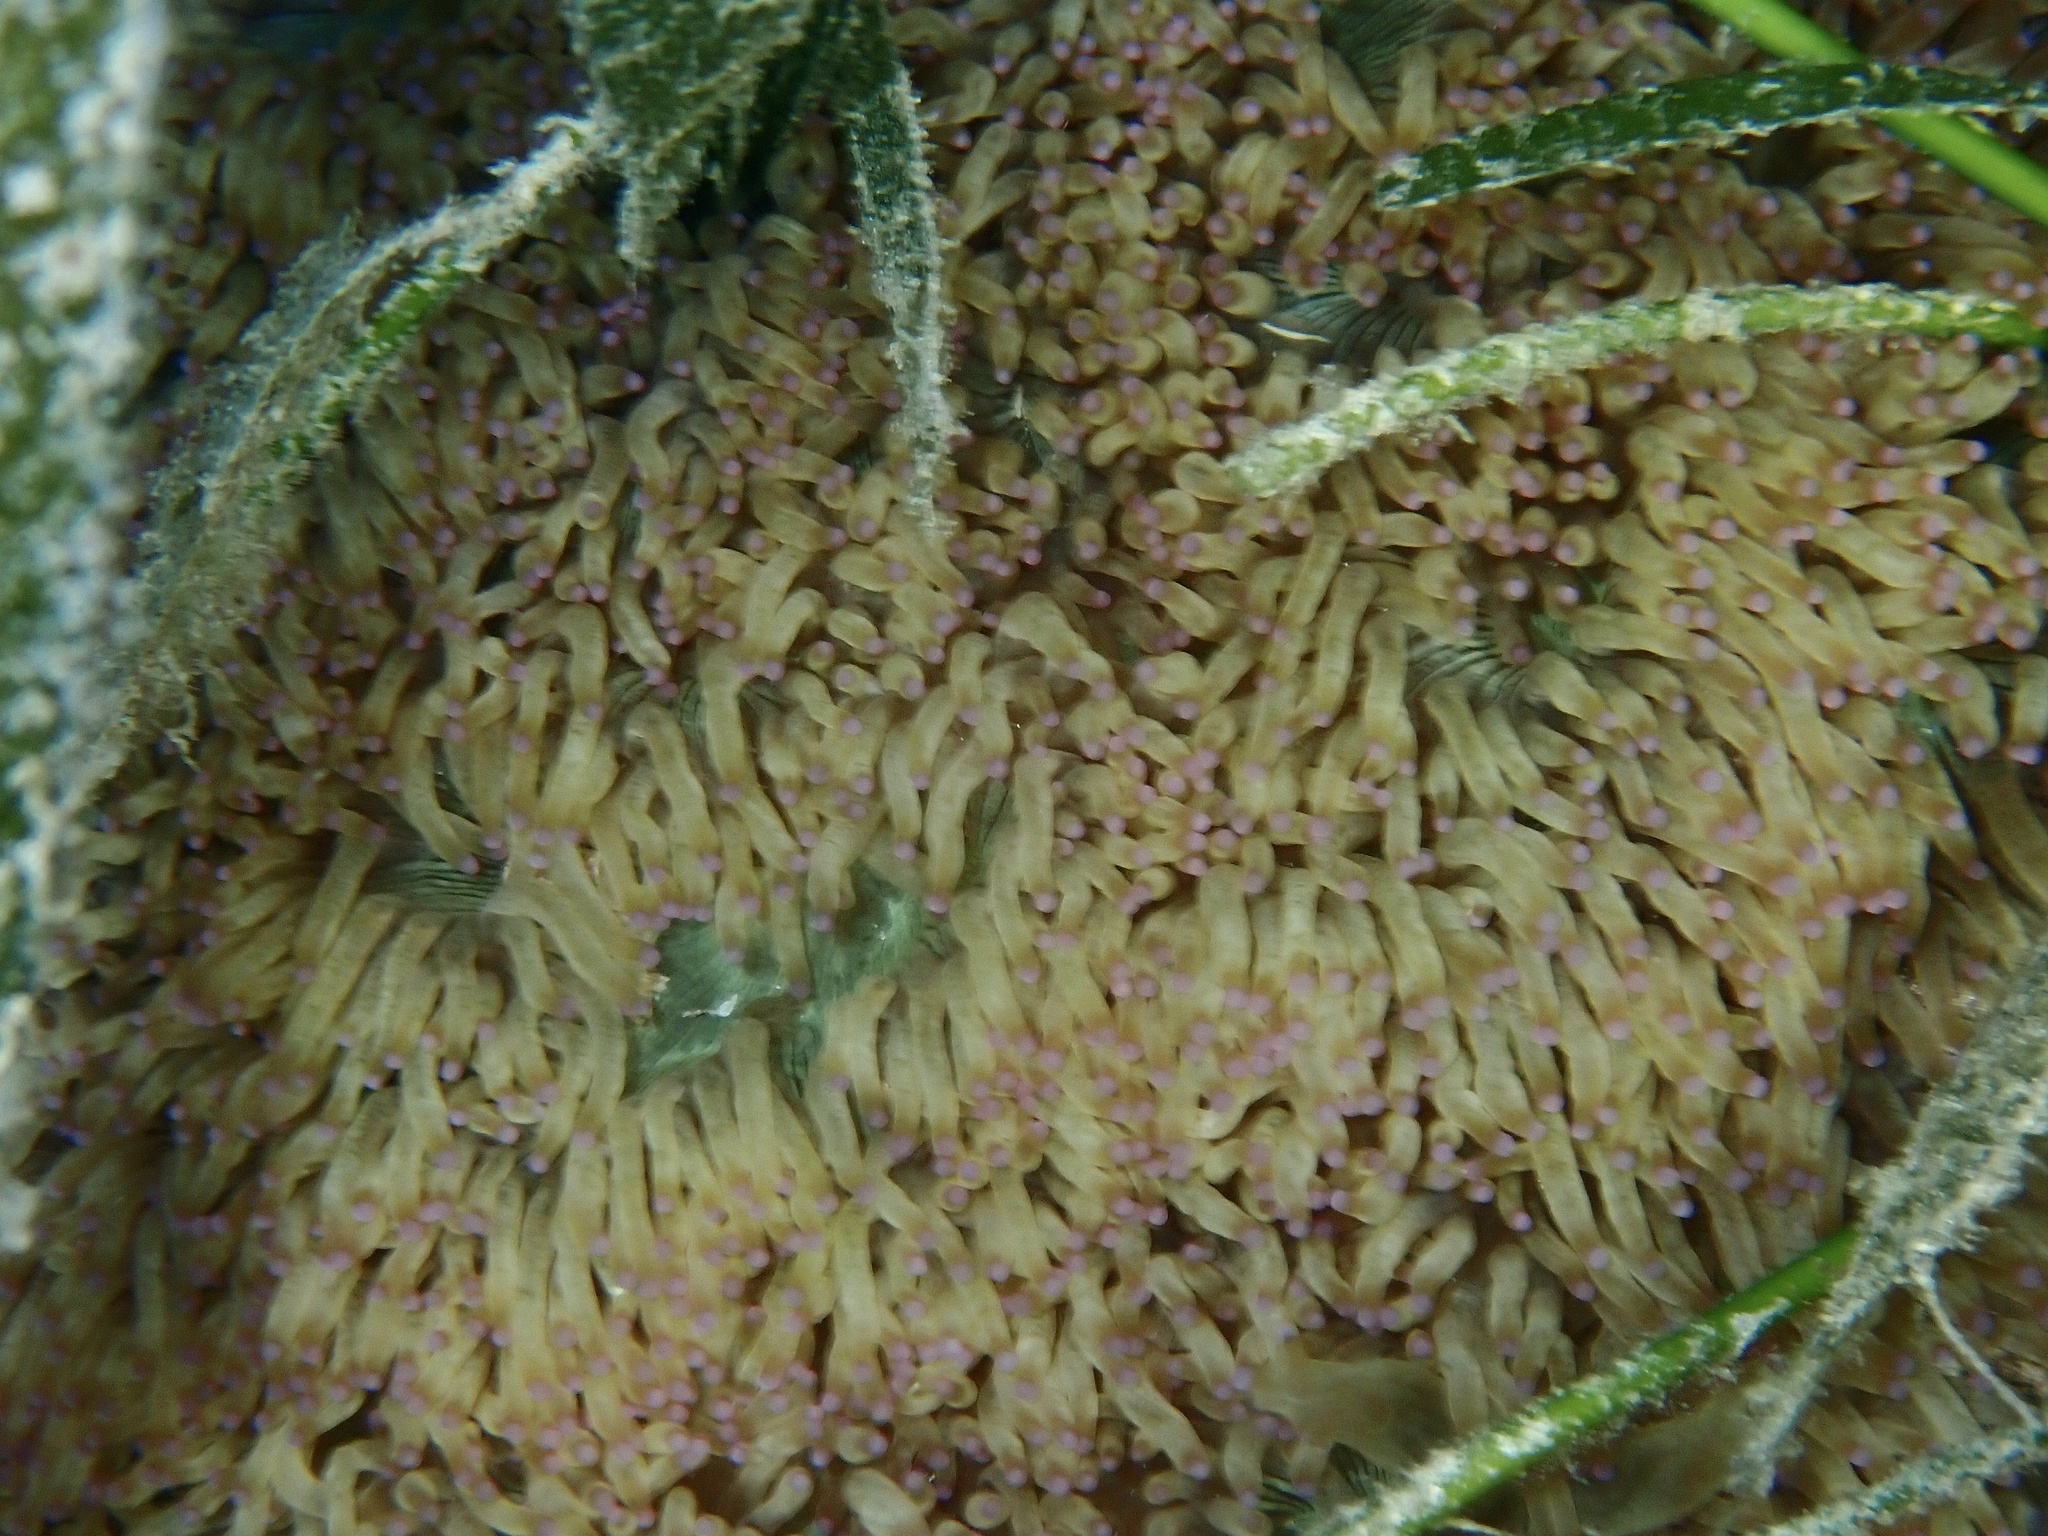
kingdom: Animalia
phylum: Cnidaria
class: Anthozoa
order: Scleractinia
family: Merulinidae
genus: Catalaphyllia
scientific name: Catalaphyllia jardinei
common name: Wonder coral
